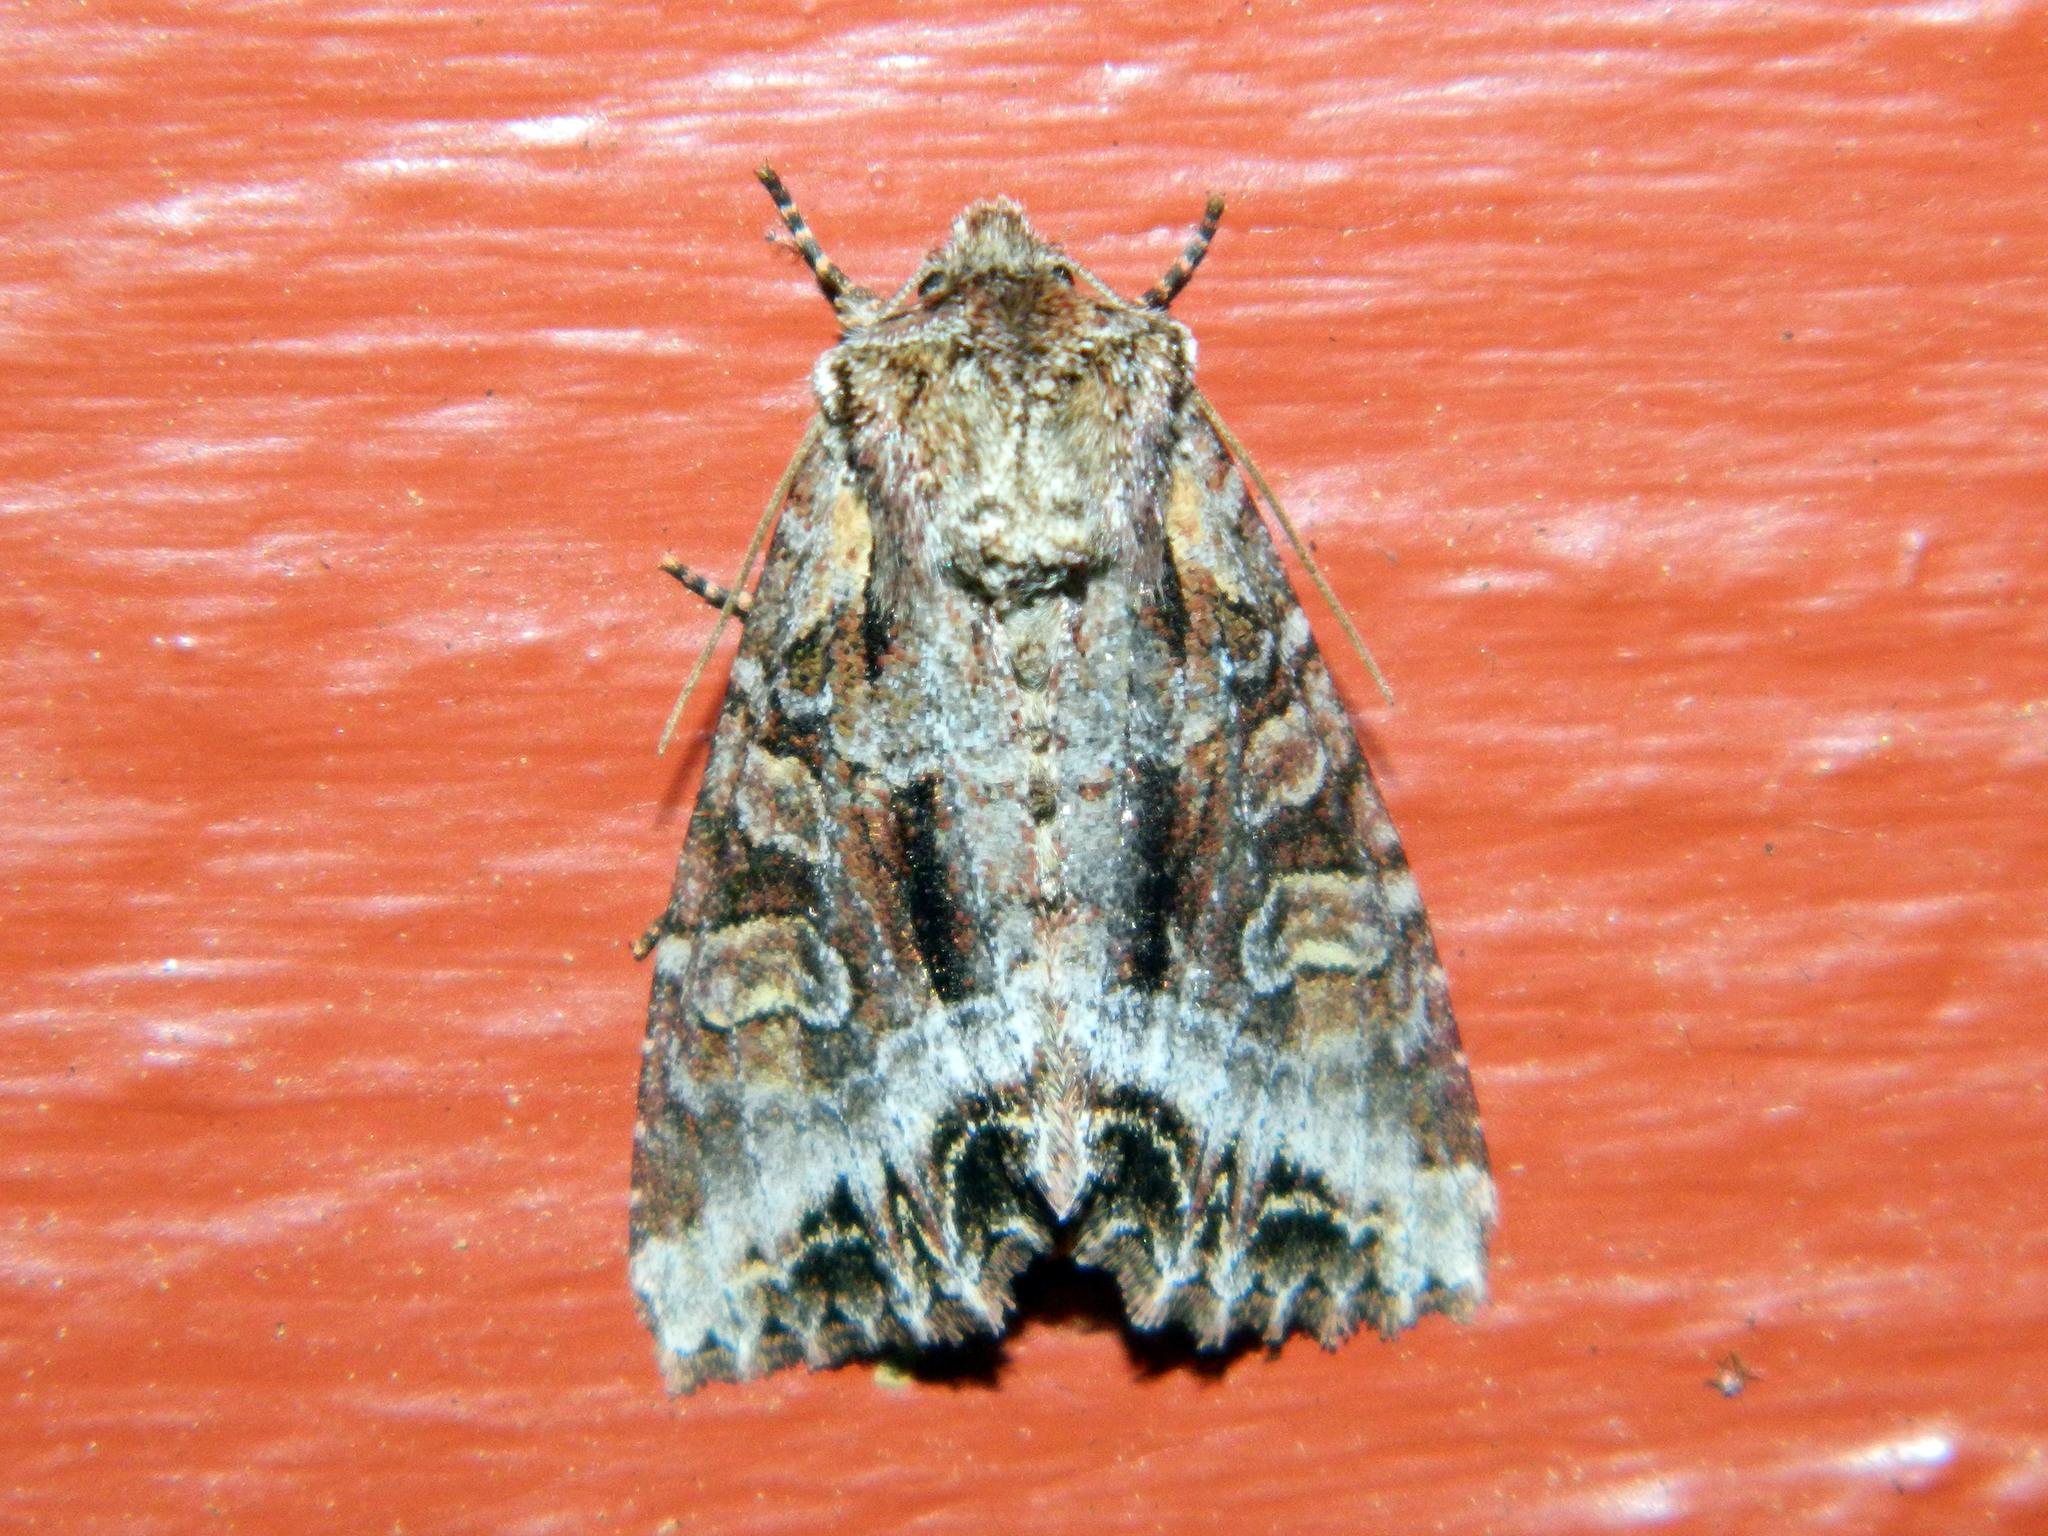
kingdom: Animalia
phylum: Arthropoda
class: Insecta
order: Lepidoptera
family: Noctuidae
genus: Lacanobia
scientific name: Lacanobia grandis
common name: Grand arches moth
